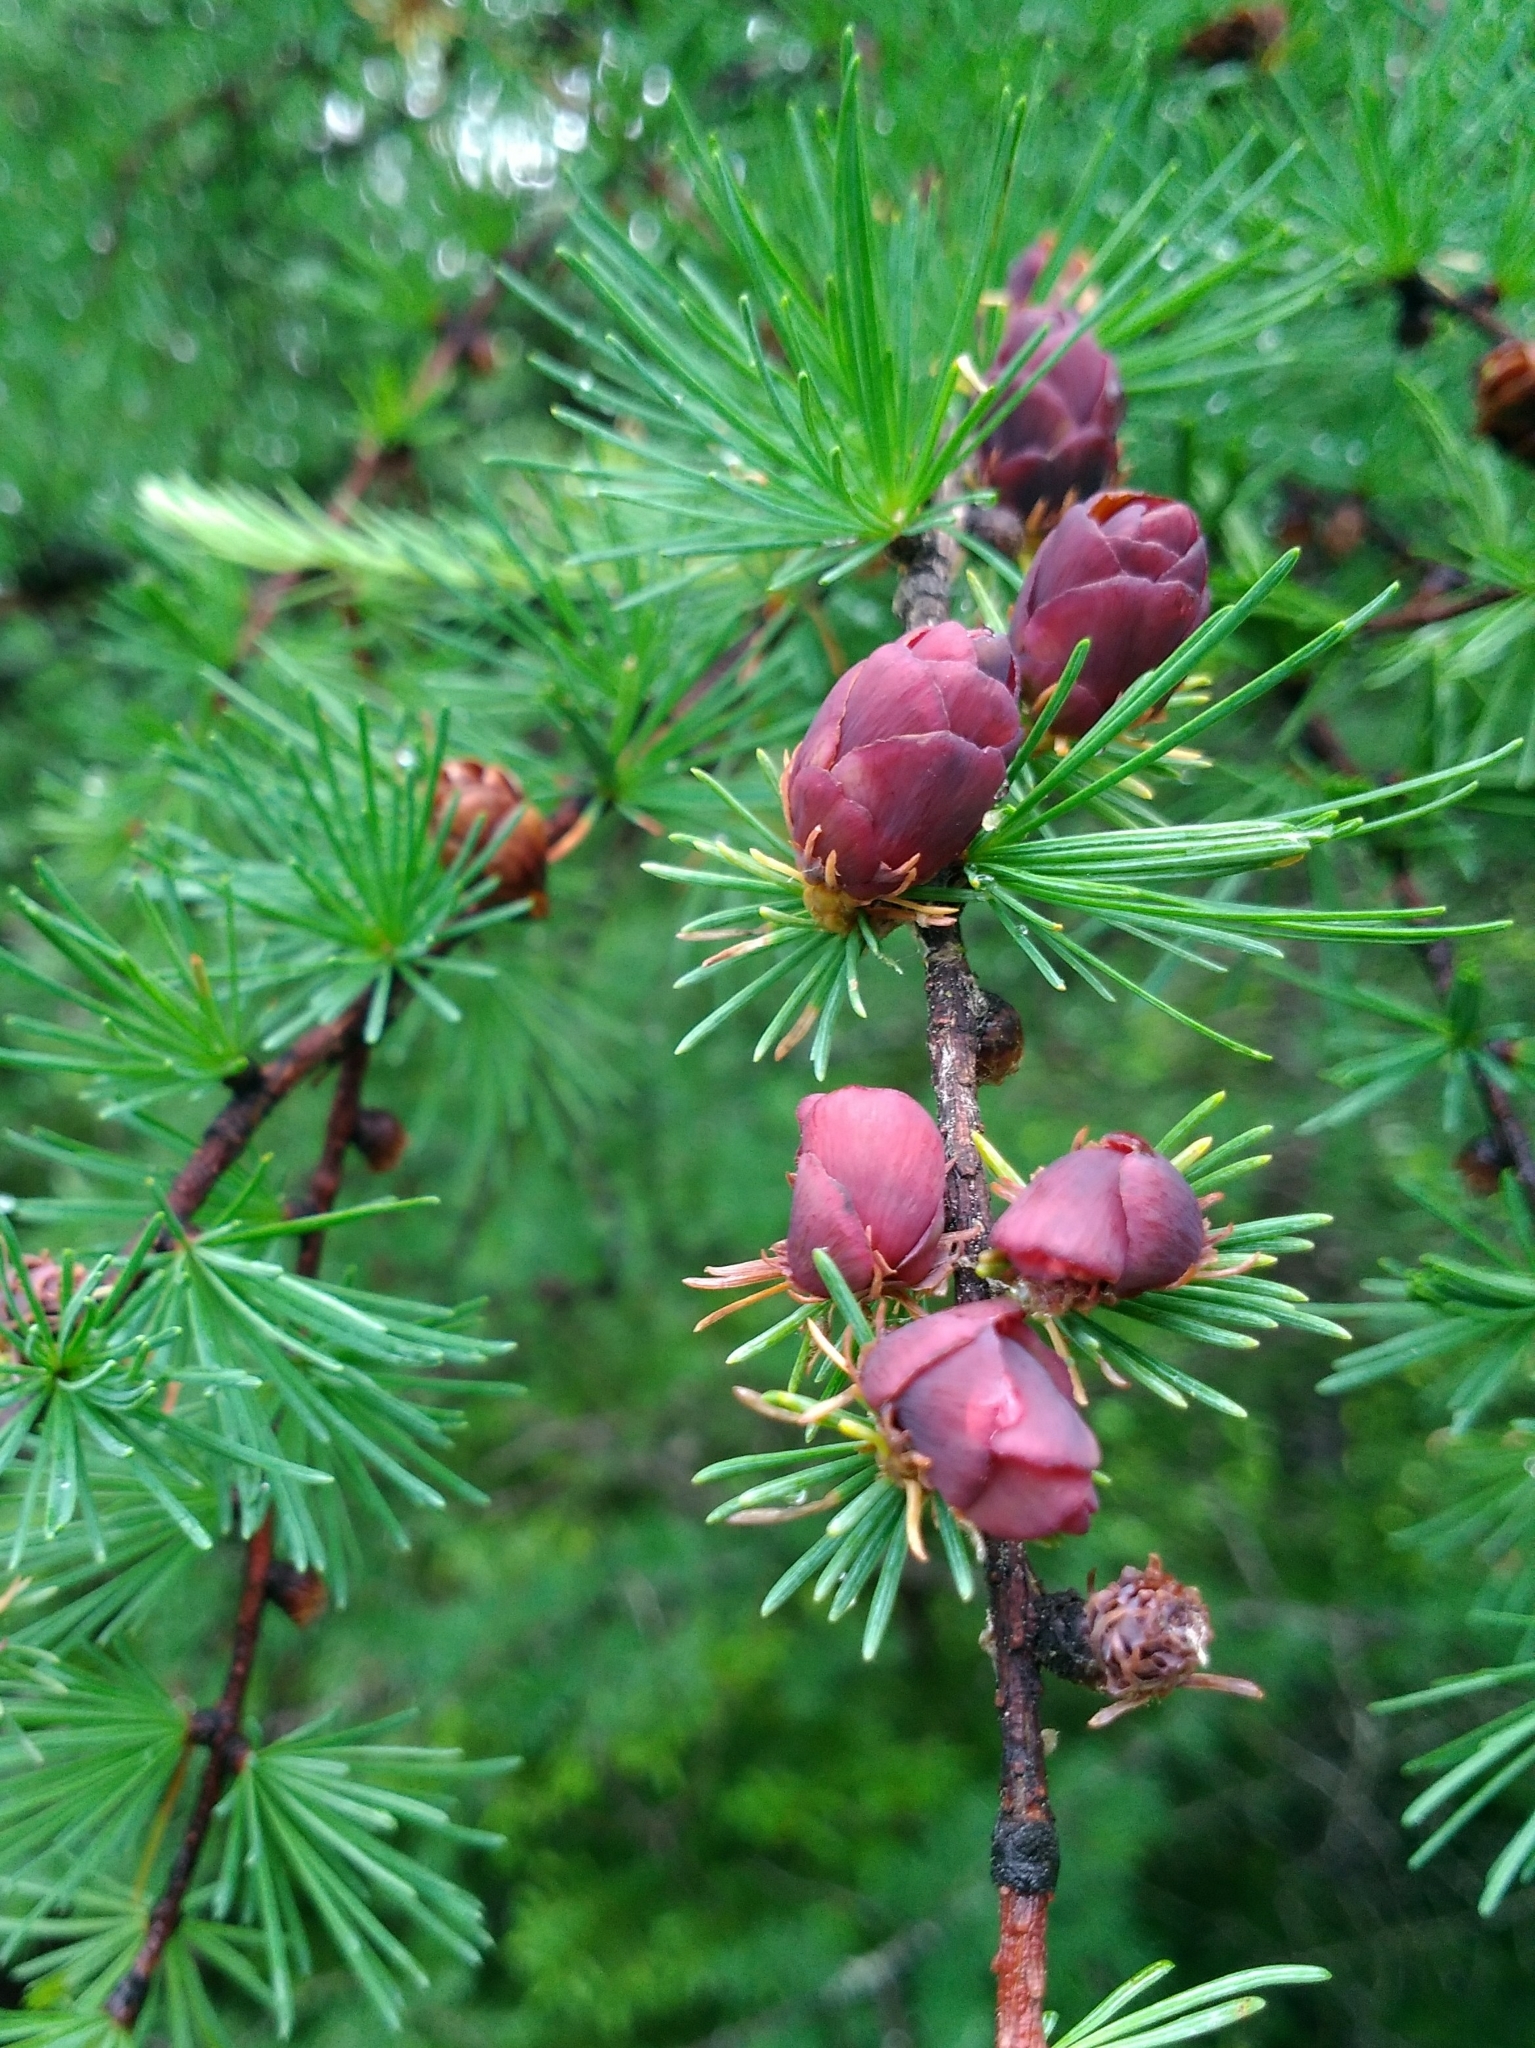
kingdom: Plantae
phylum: Tracheophyta
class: Pinopsida
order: Pinales
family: Pinaceae
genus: Larix
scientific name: Larix laricina
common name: American larch
